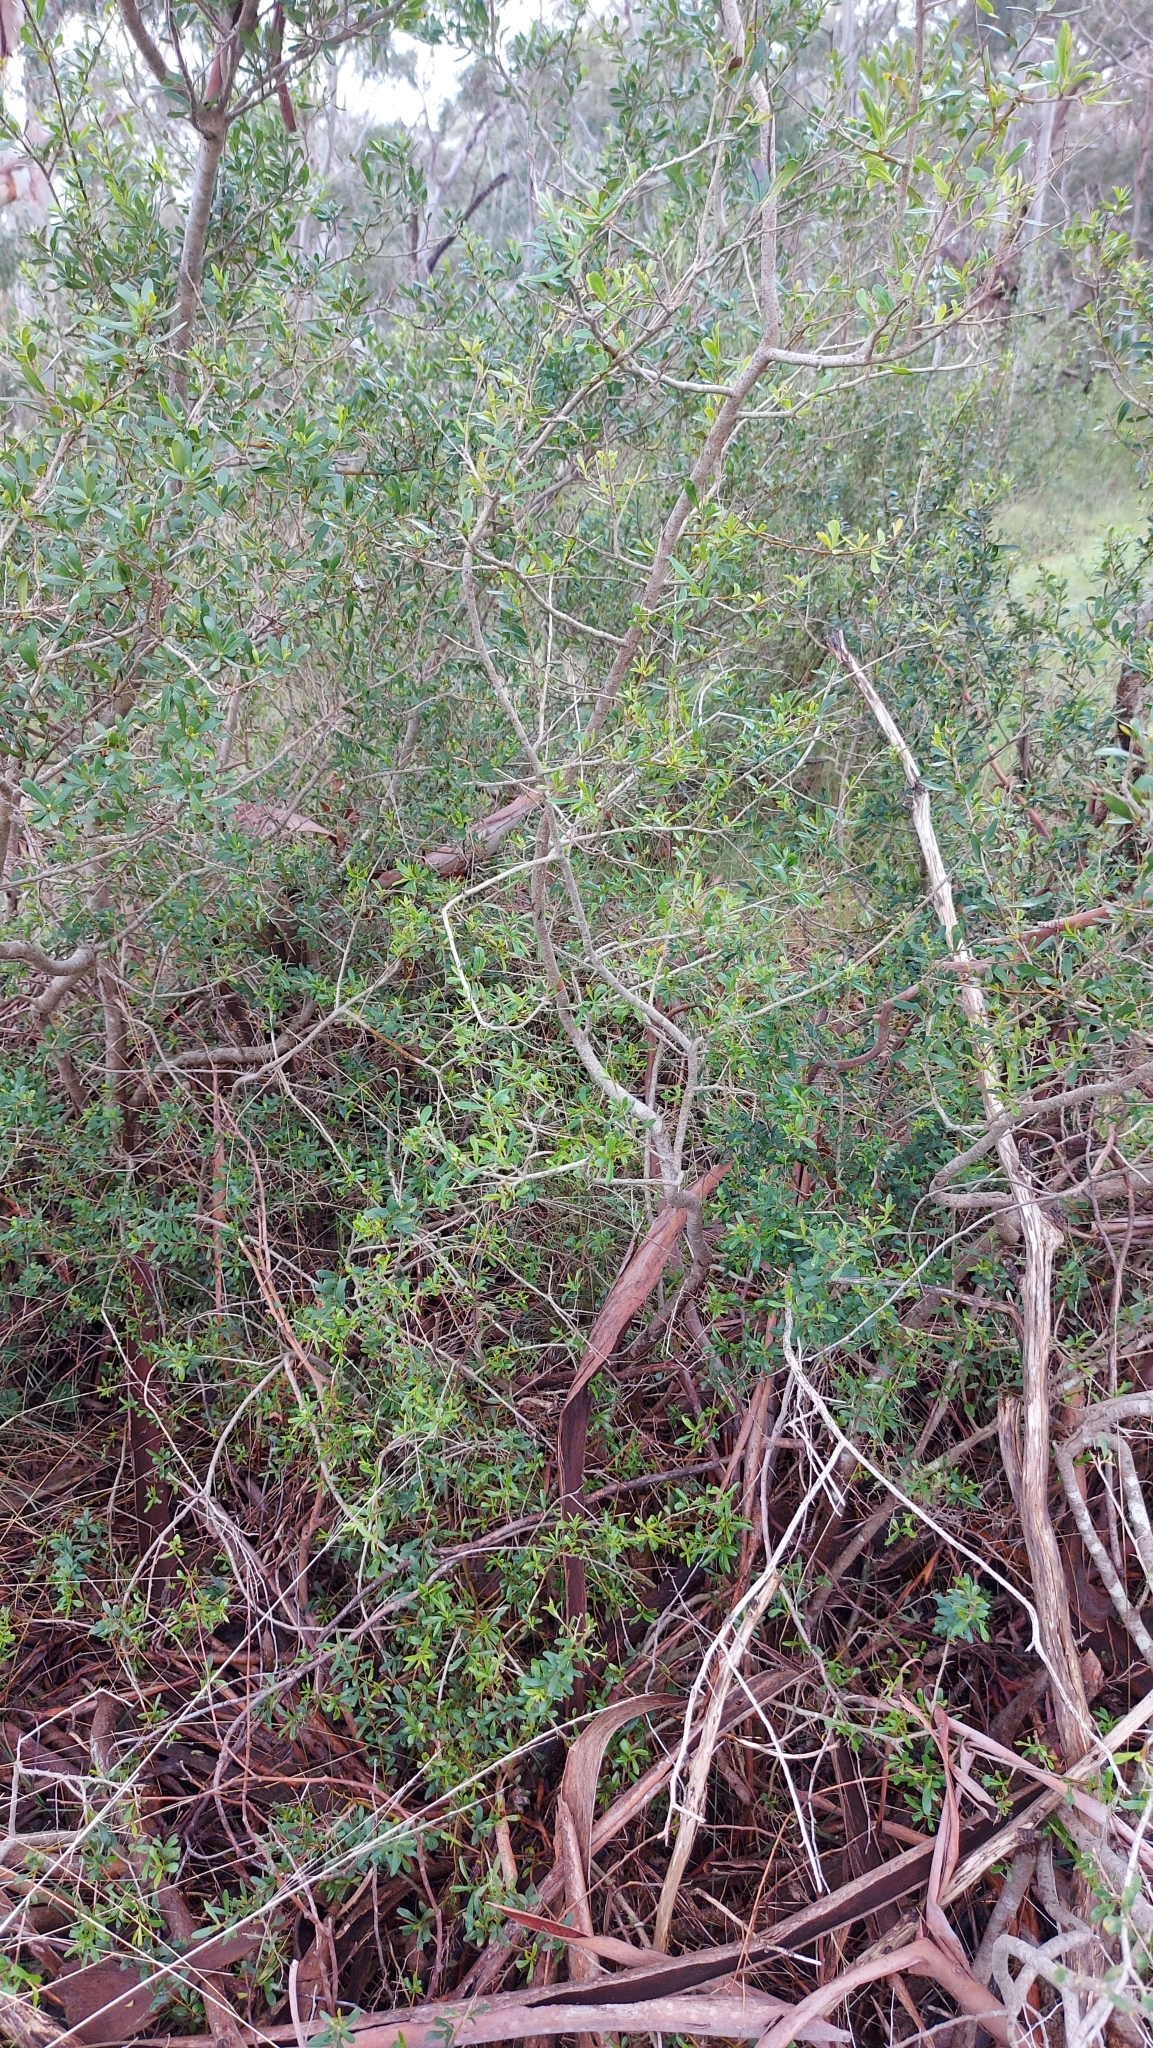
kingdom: Plantae
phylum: Tracheophyta
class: Magnoliopsida
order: Apiales
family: Pittosporaceae
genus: Bursaria
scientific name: Bursaria spinosa
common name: Australian blackthorn
